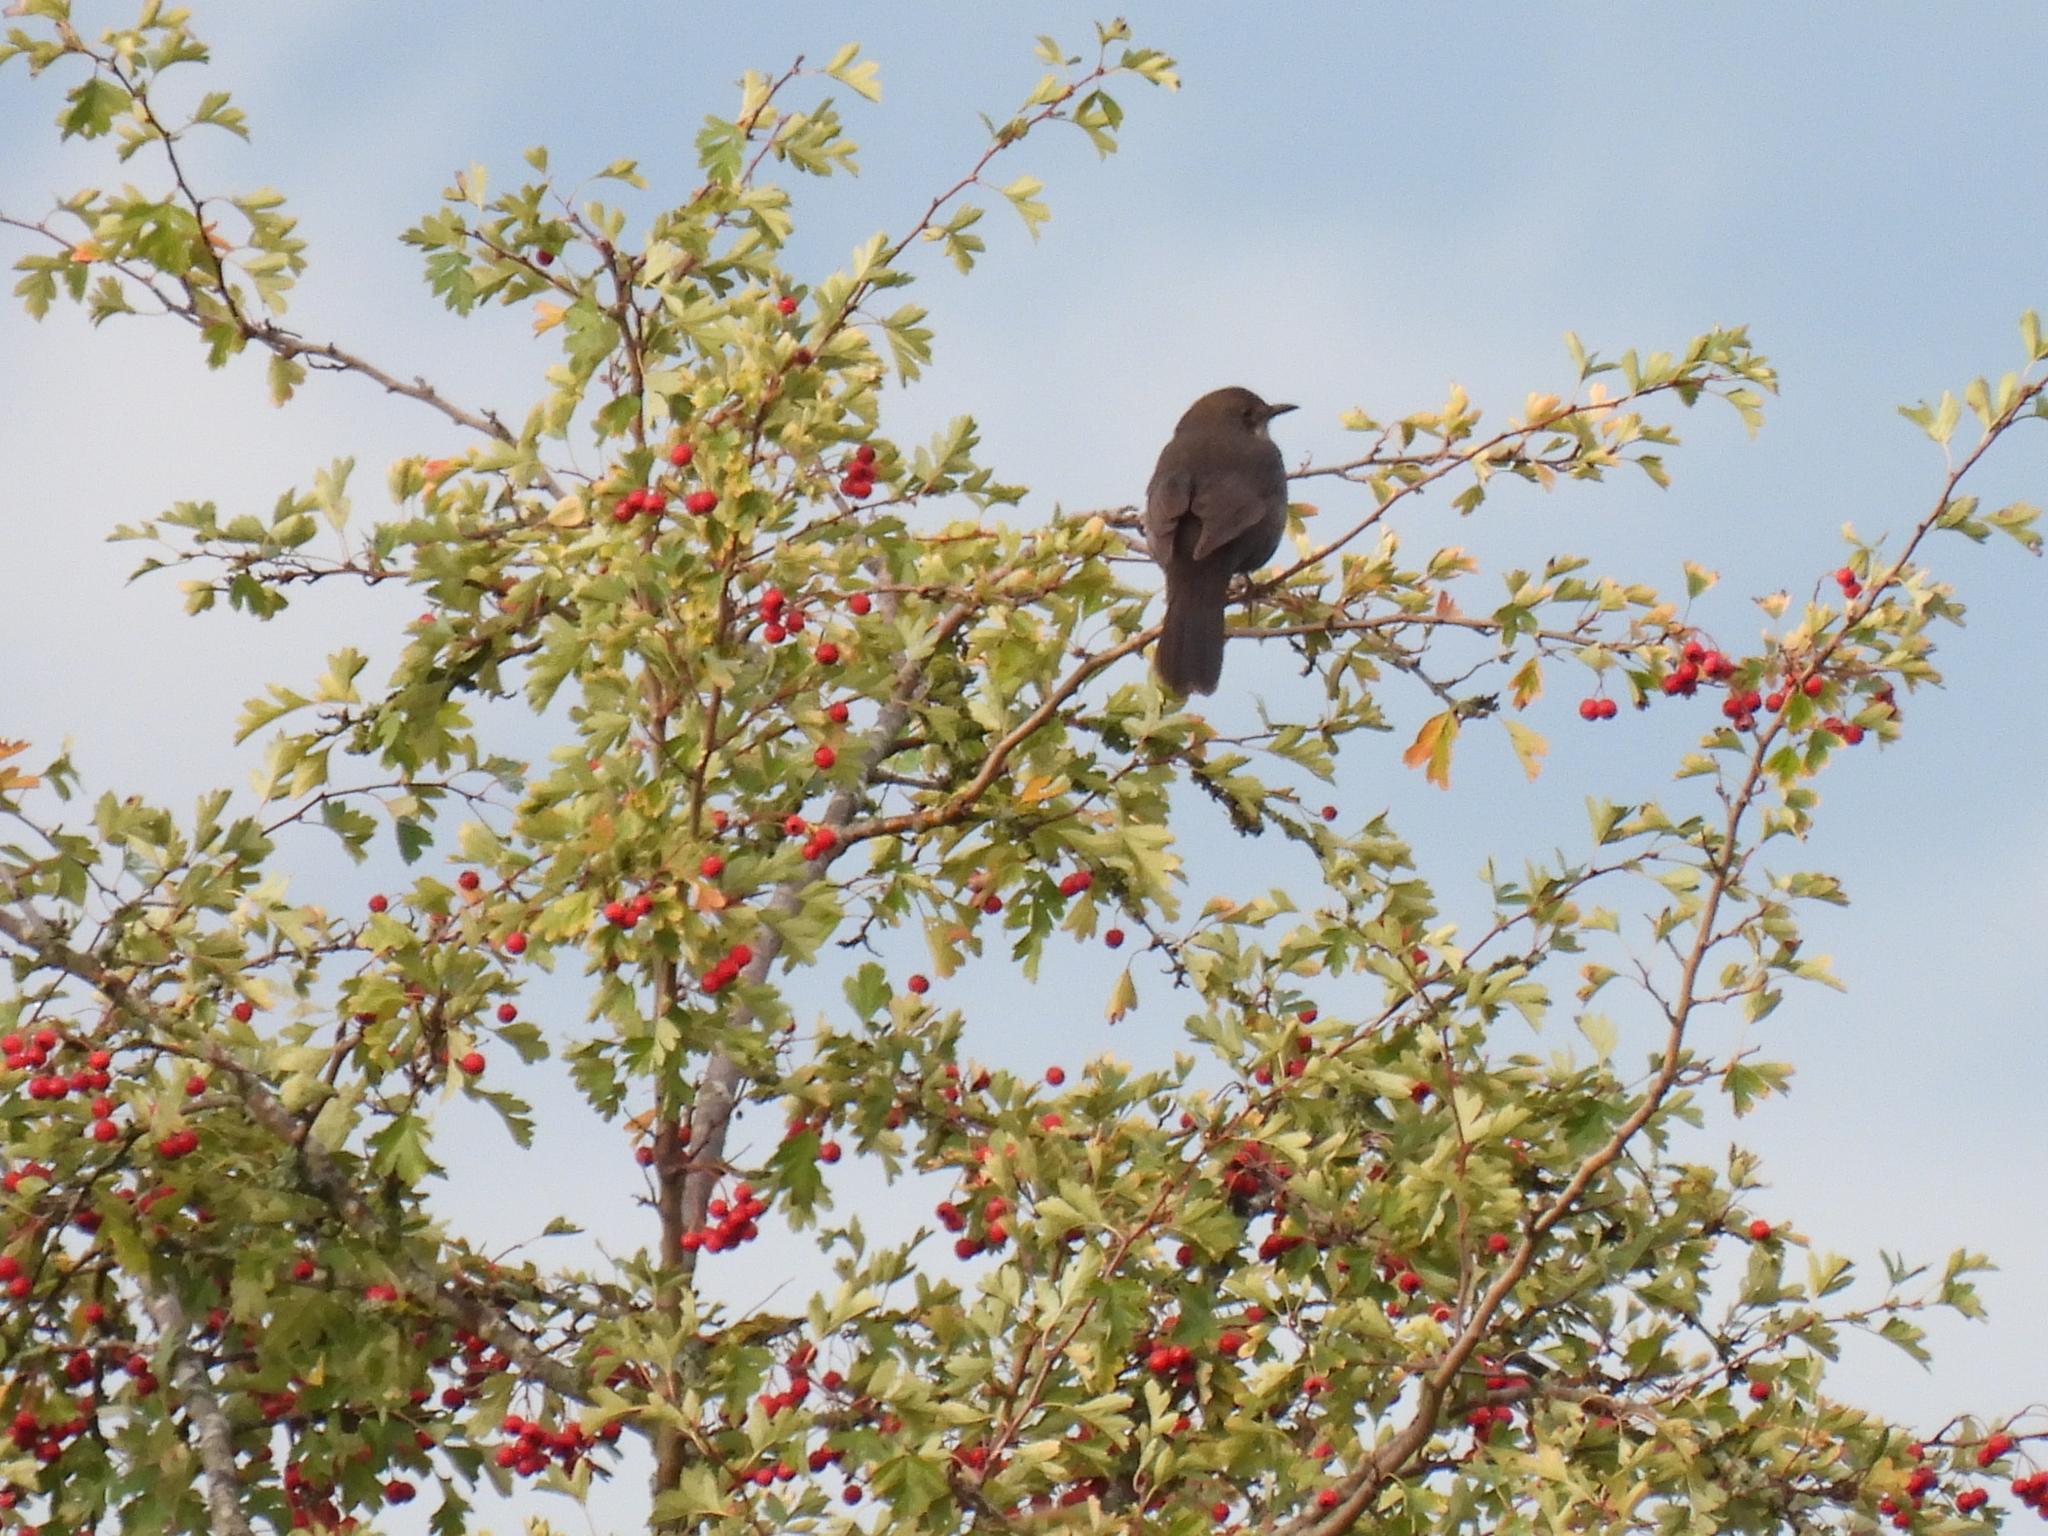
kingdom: Animalia
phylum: Chordata
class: Aves
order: Passeriformes
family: Turdidae
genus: Turdus
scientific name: Turdus merula
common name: Common blackbird
